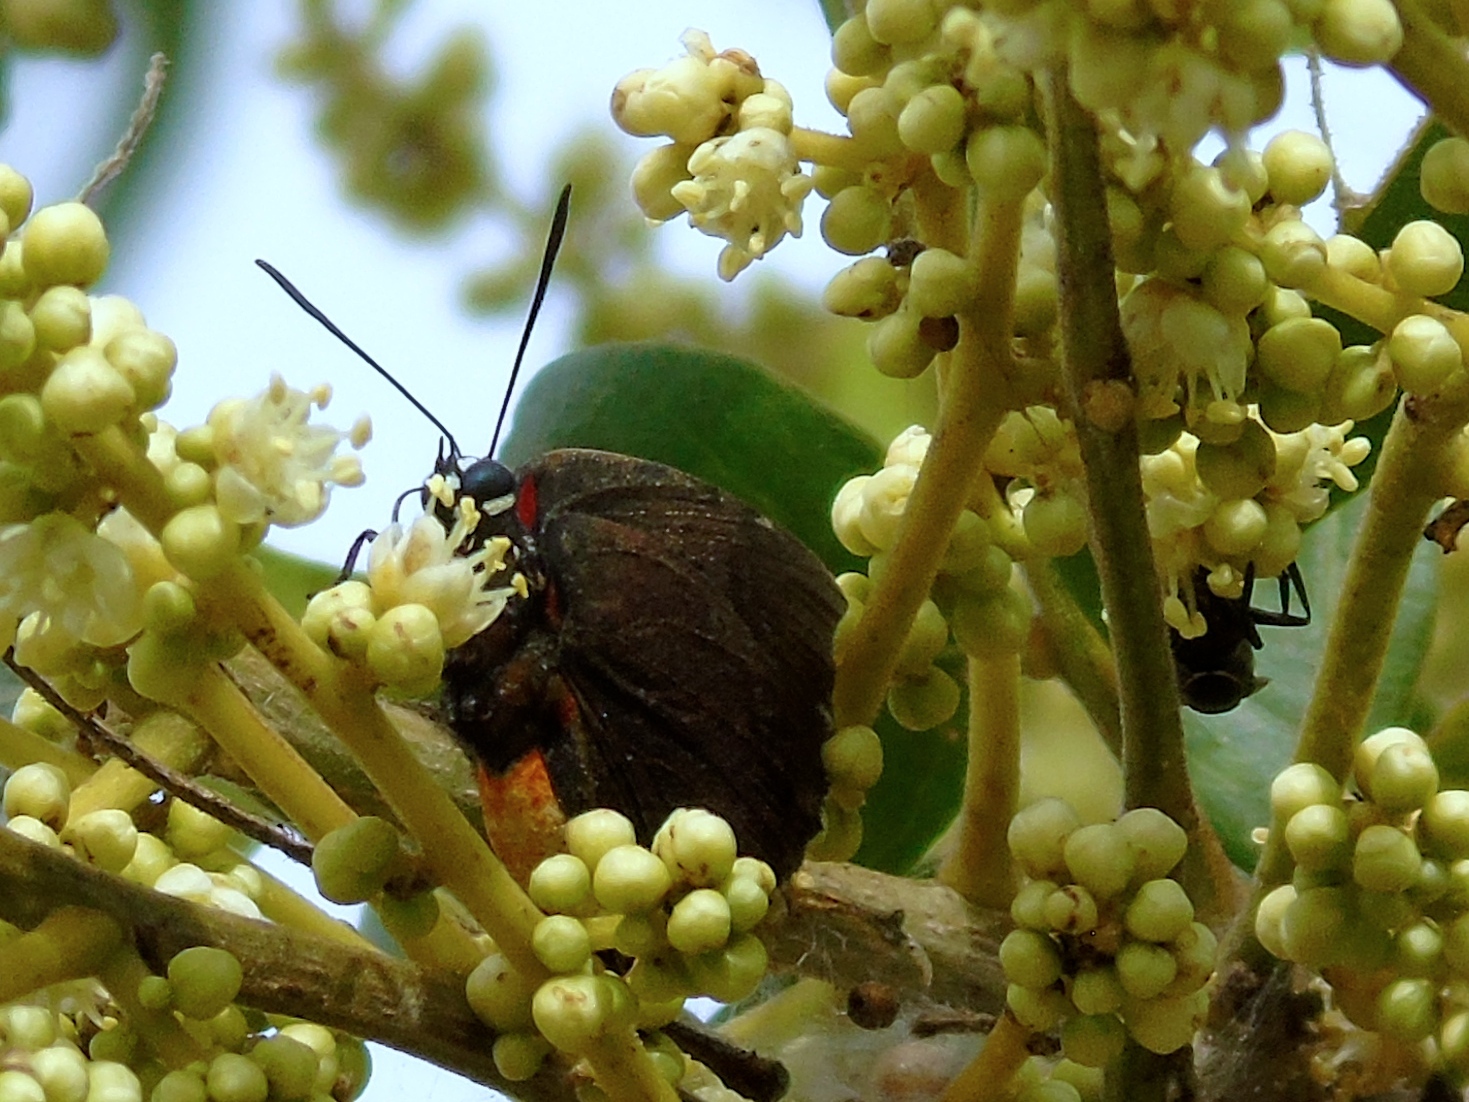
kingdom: Animalia
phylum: Arthropoda
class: Insecta
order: Lepidoptera
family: Lycaenidae
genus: Atlides
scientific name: Atlides
